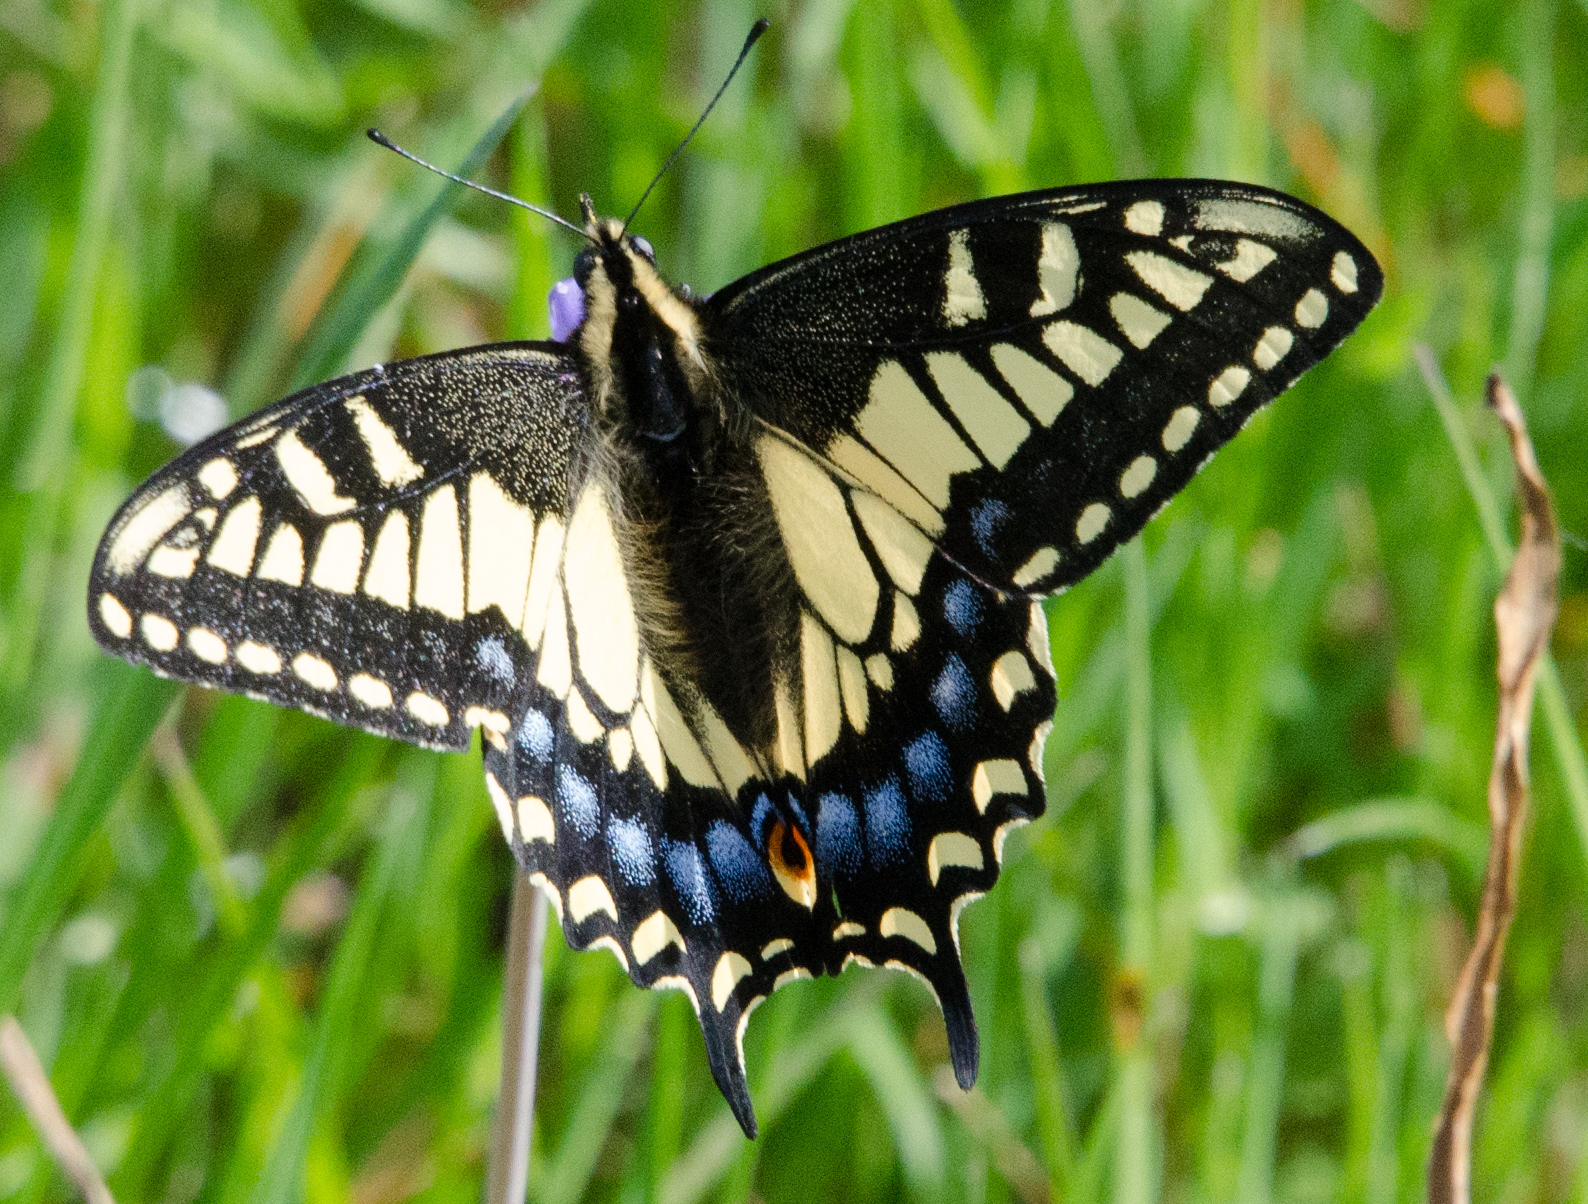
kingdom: Animalia
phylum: Arthropoda
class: Insecta
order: Lepidoptera
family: Papilionidae
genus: Papilio
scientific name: Papilio zelicaon
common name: Anise swallowtail
